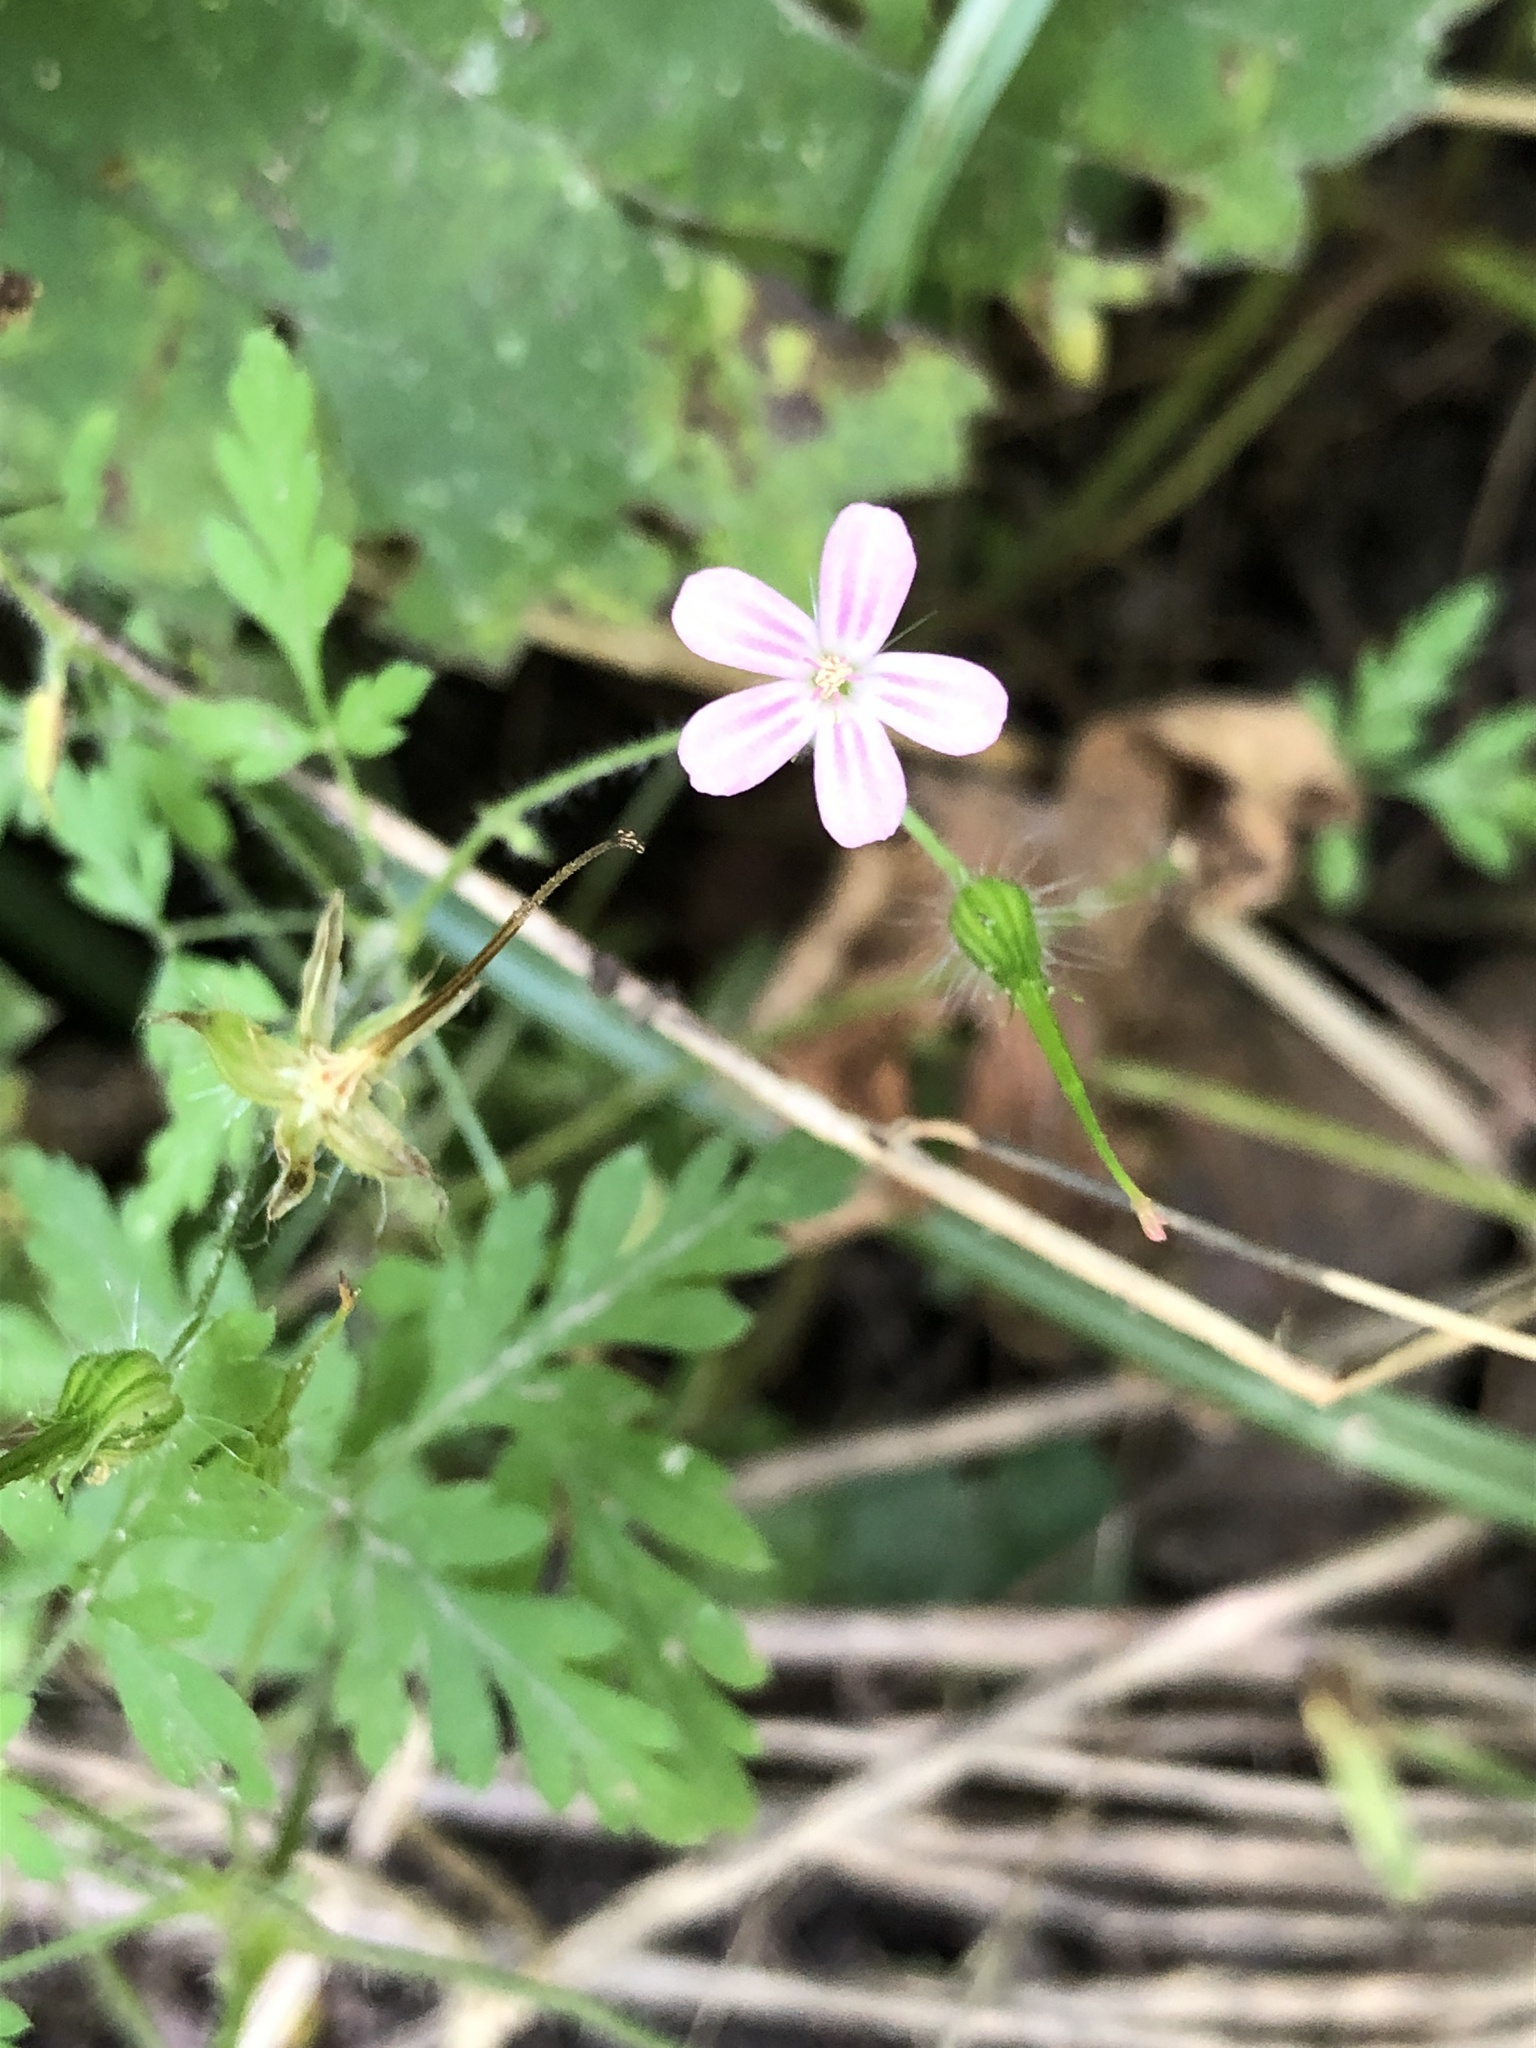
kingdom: Plantae
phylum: Tracheophyta
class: Magnoliopsida
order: Geraniales
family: Geraniaceae
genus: Geranium
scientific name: Geranium robertianum
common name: Herb-robert
